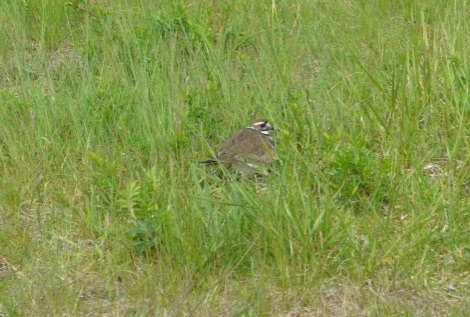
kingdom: Animalia
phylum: Chordata
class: Aves
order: Charadriiformes
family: Charadriidae
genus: Charadrius
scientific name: Charadrius vociferus
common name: Killdeer
